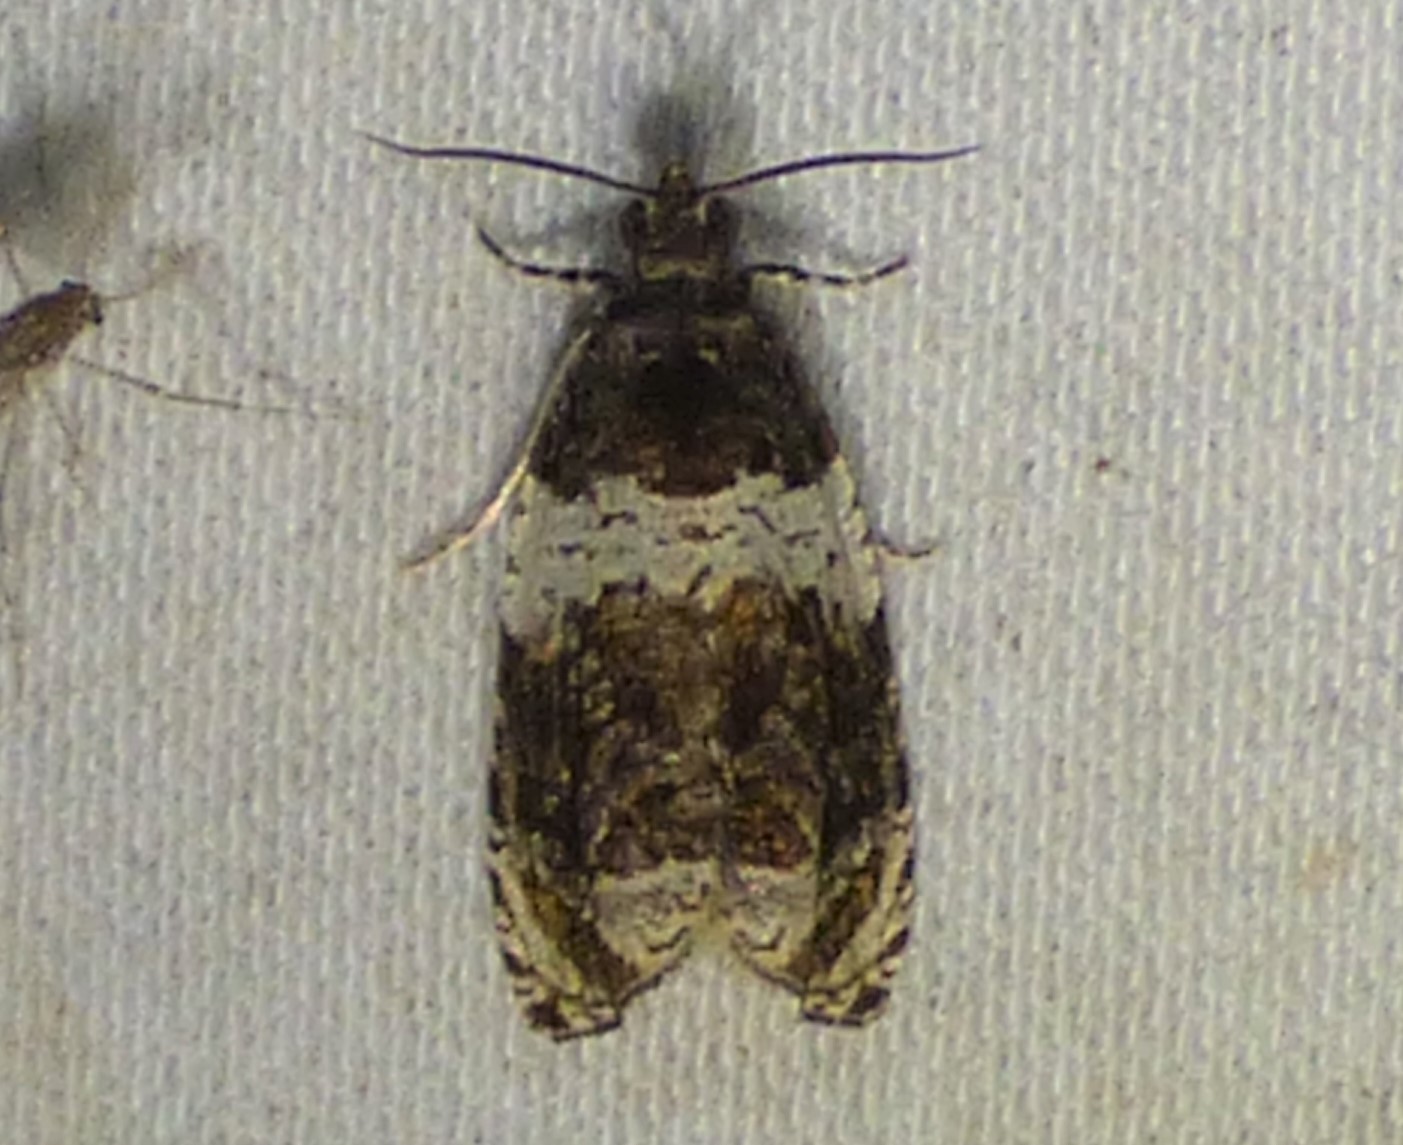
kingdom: Animalia
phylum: Arthropoda
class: Insecta
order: Lepidoptera
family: Tortricidae
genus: Olethreutes
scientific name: Olethreutes fasciatana
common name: Banded olethreutes moth
